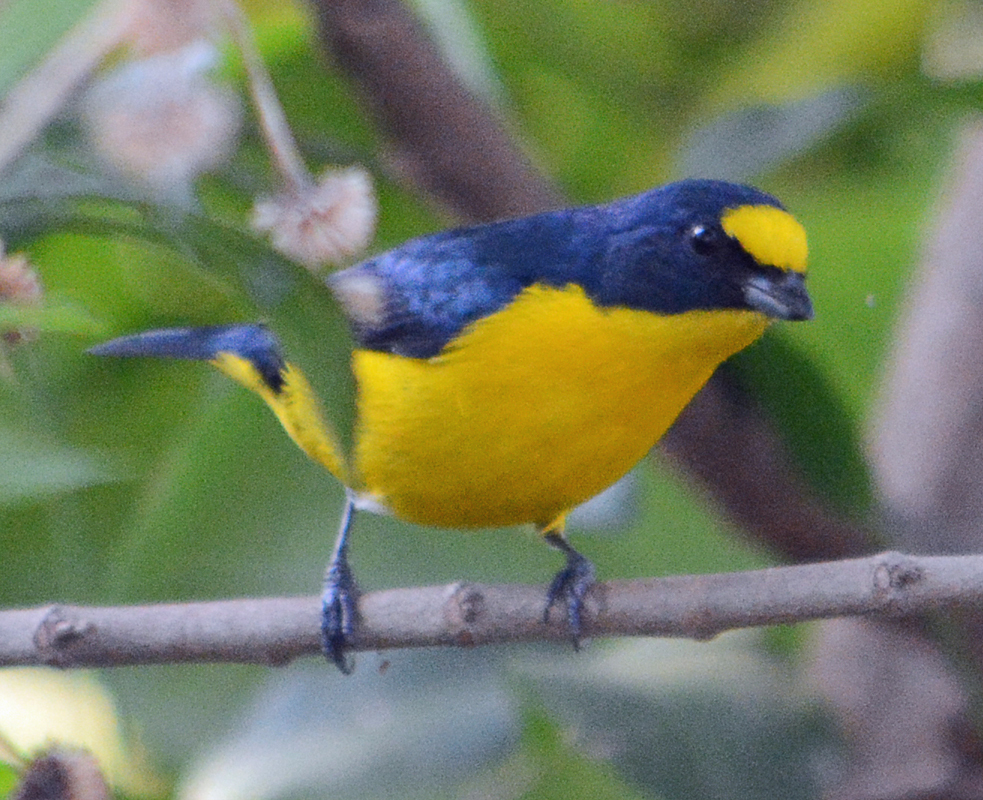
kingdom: Animalia
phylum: Chordata
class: Aves
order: Passeriformes
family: Fringillidae
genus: Euphonia
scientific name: Euphonia hirundinacea
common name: Yellow-throated euphonia
